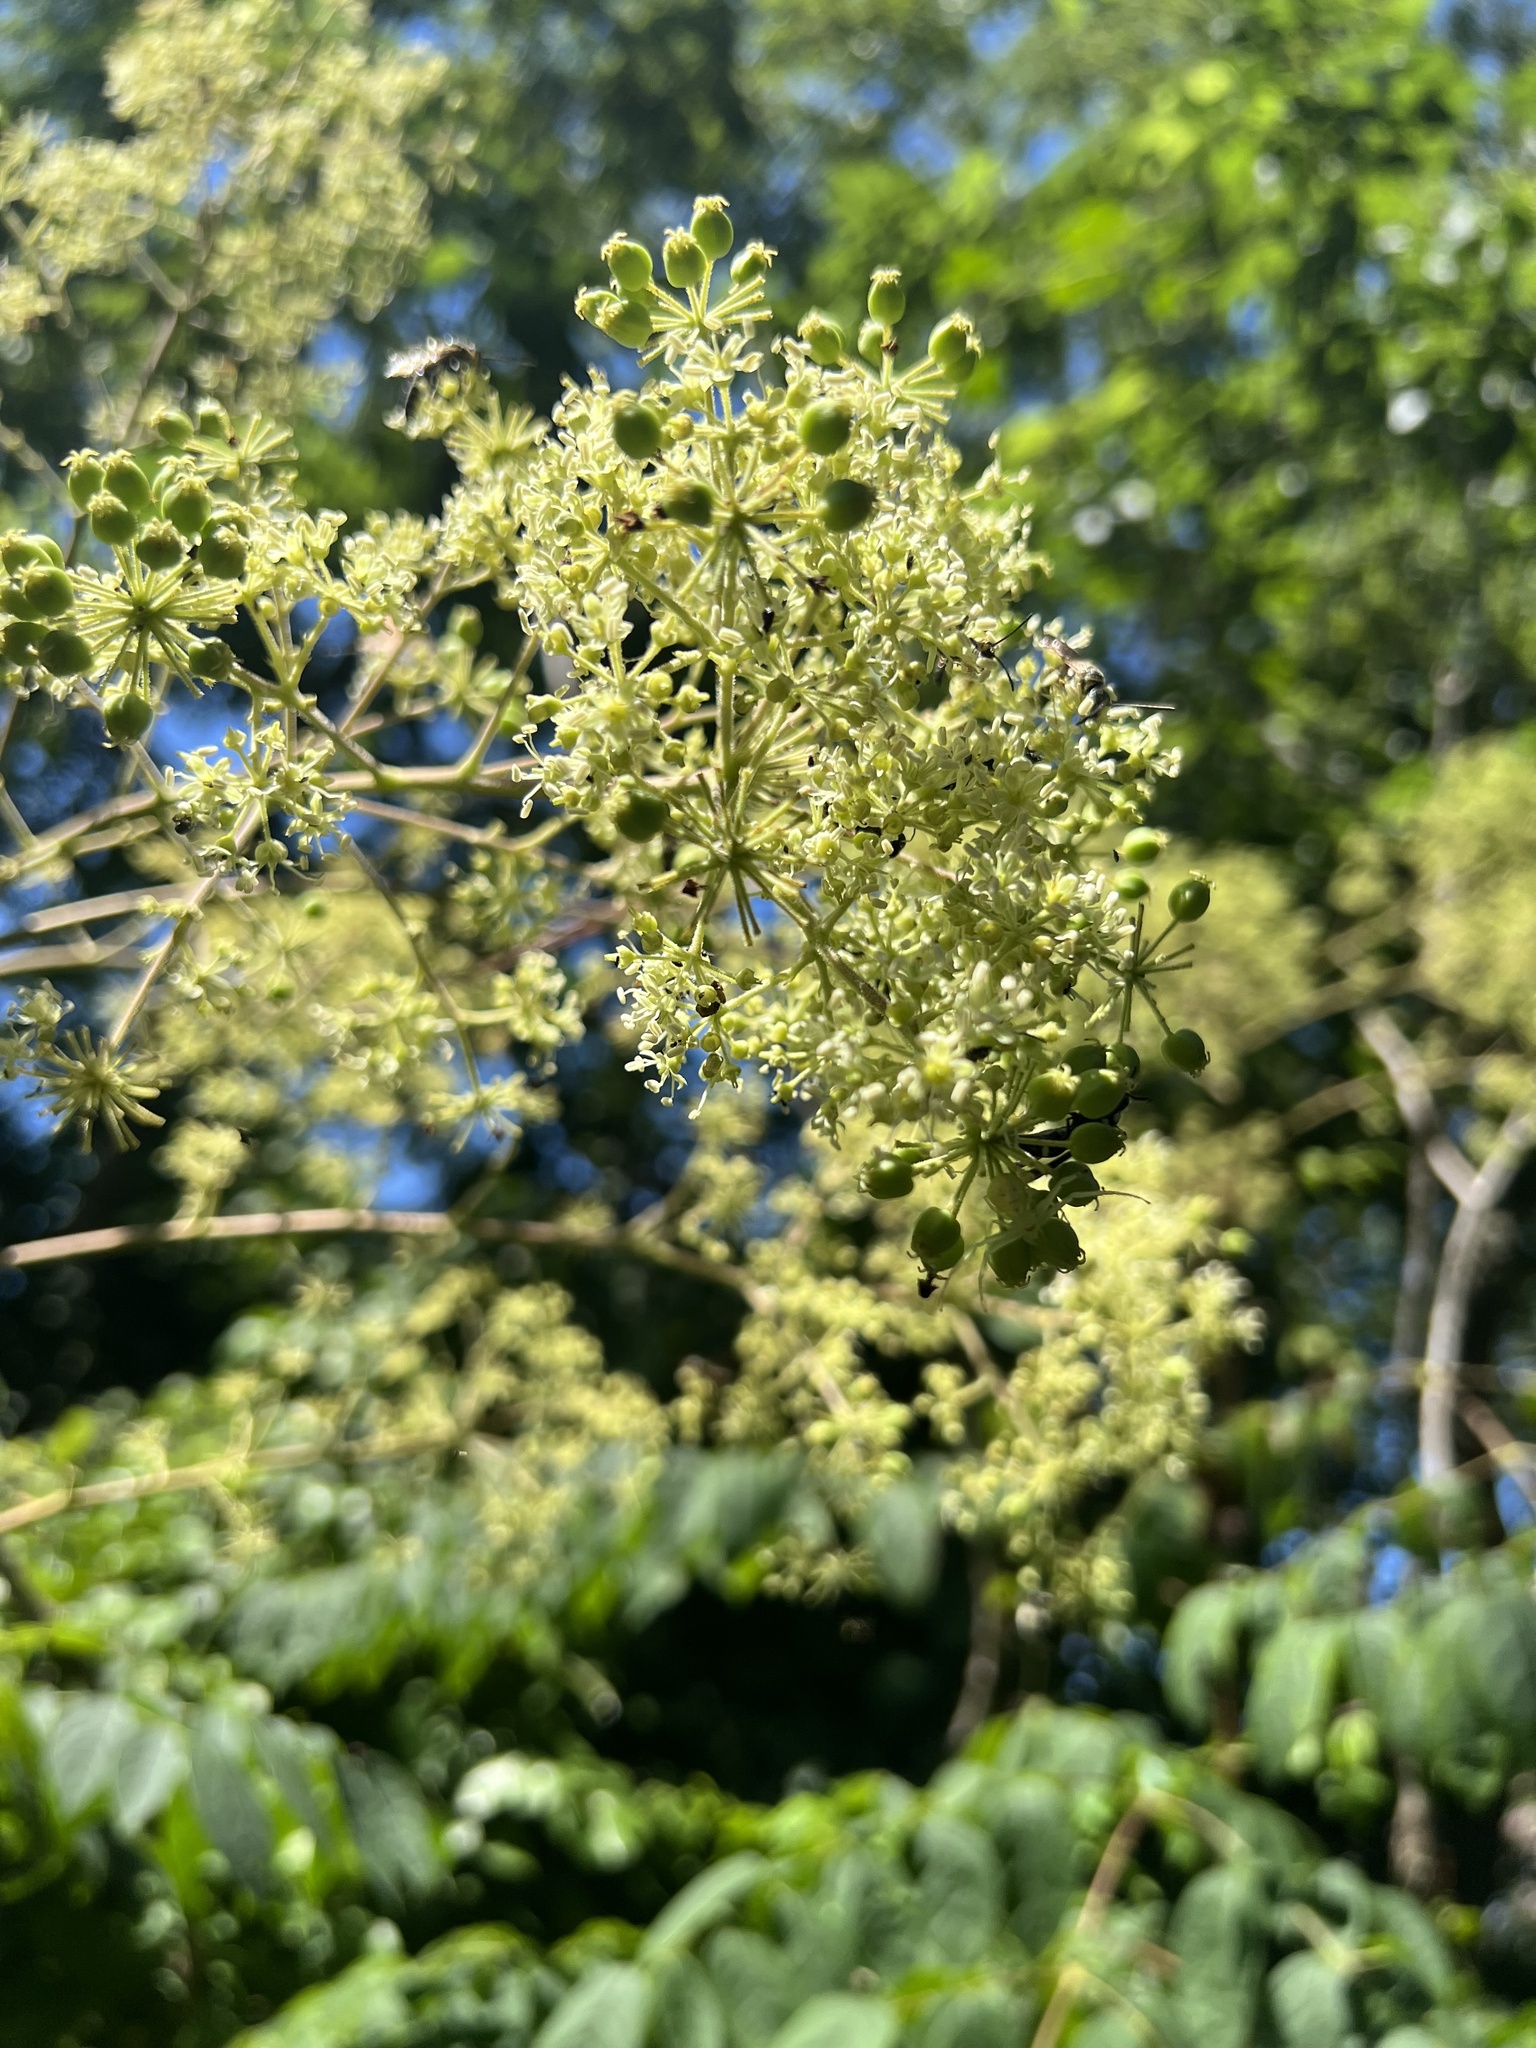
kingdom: Plantae
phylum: Tracheophyta
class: Magnoliopsida
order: Apiales
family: Araliaceae
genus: Aralia
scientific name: Aralia spinosa
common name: Hercules'-club
